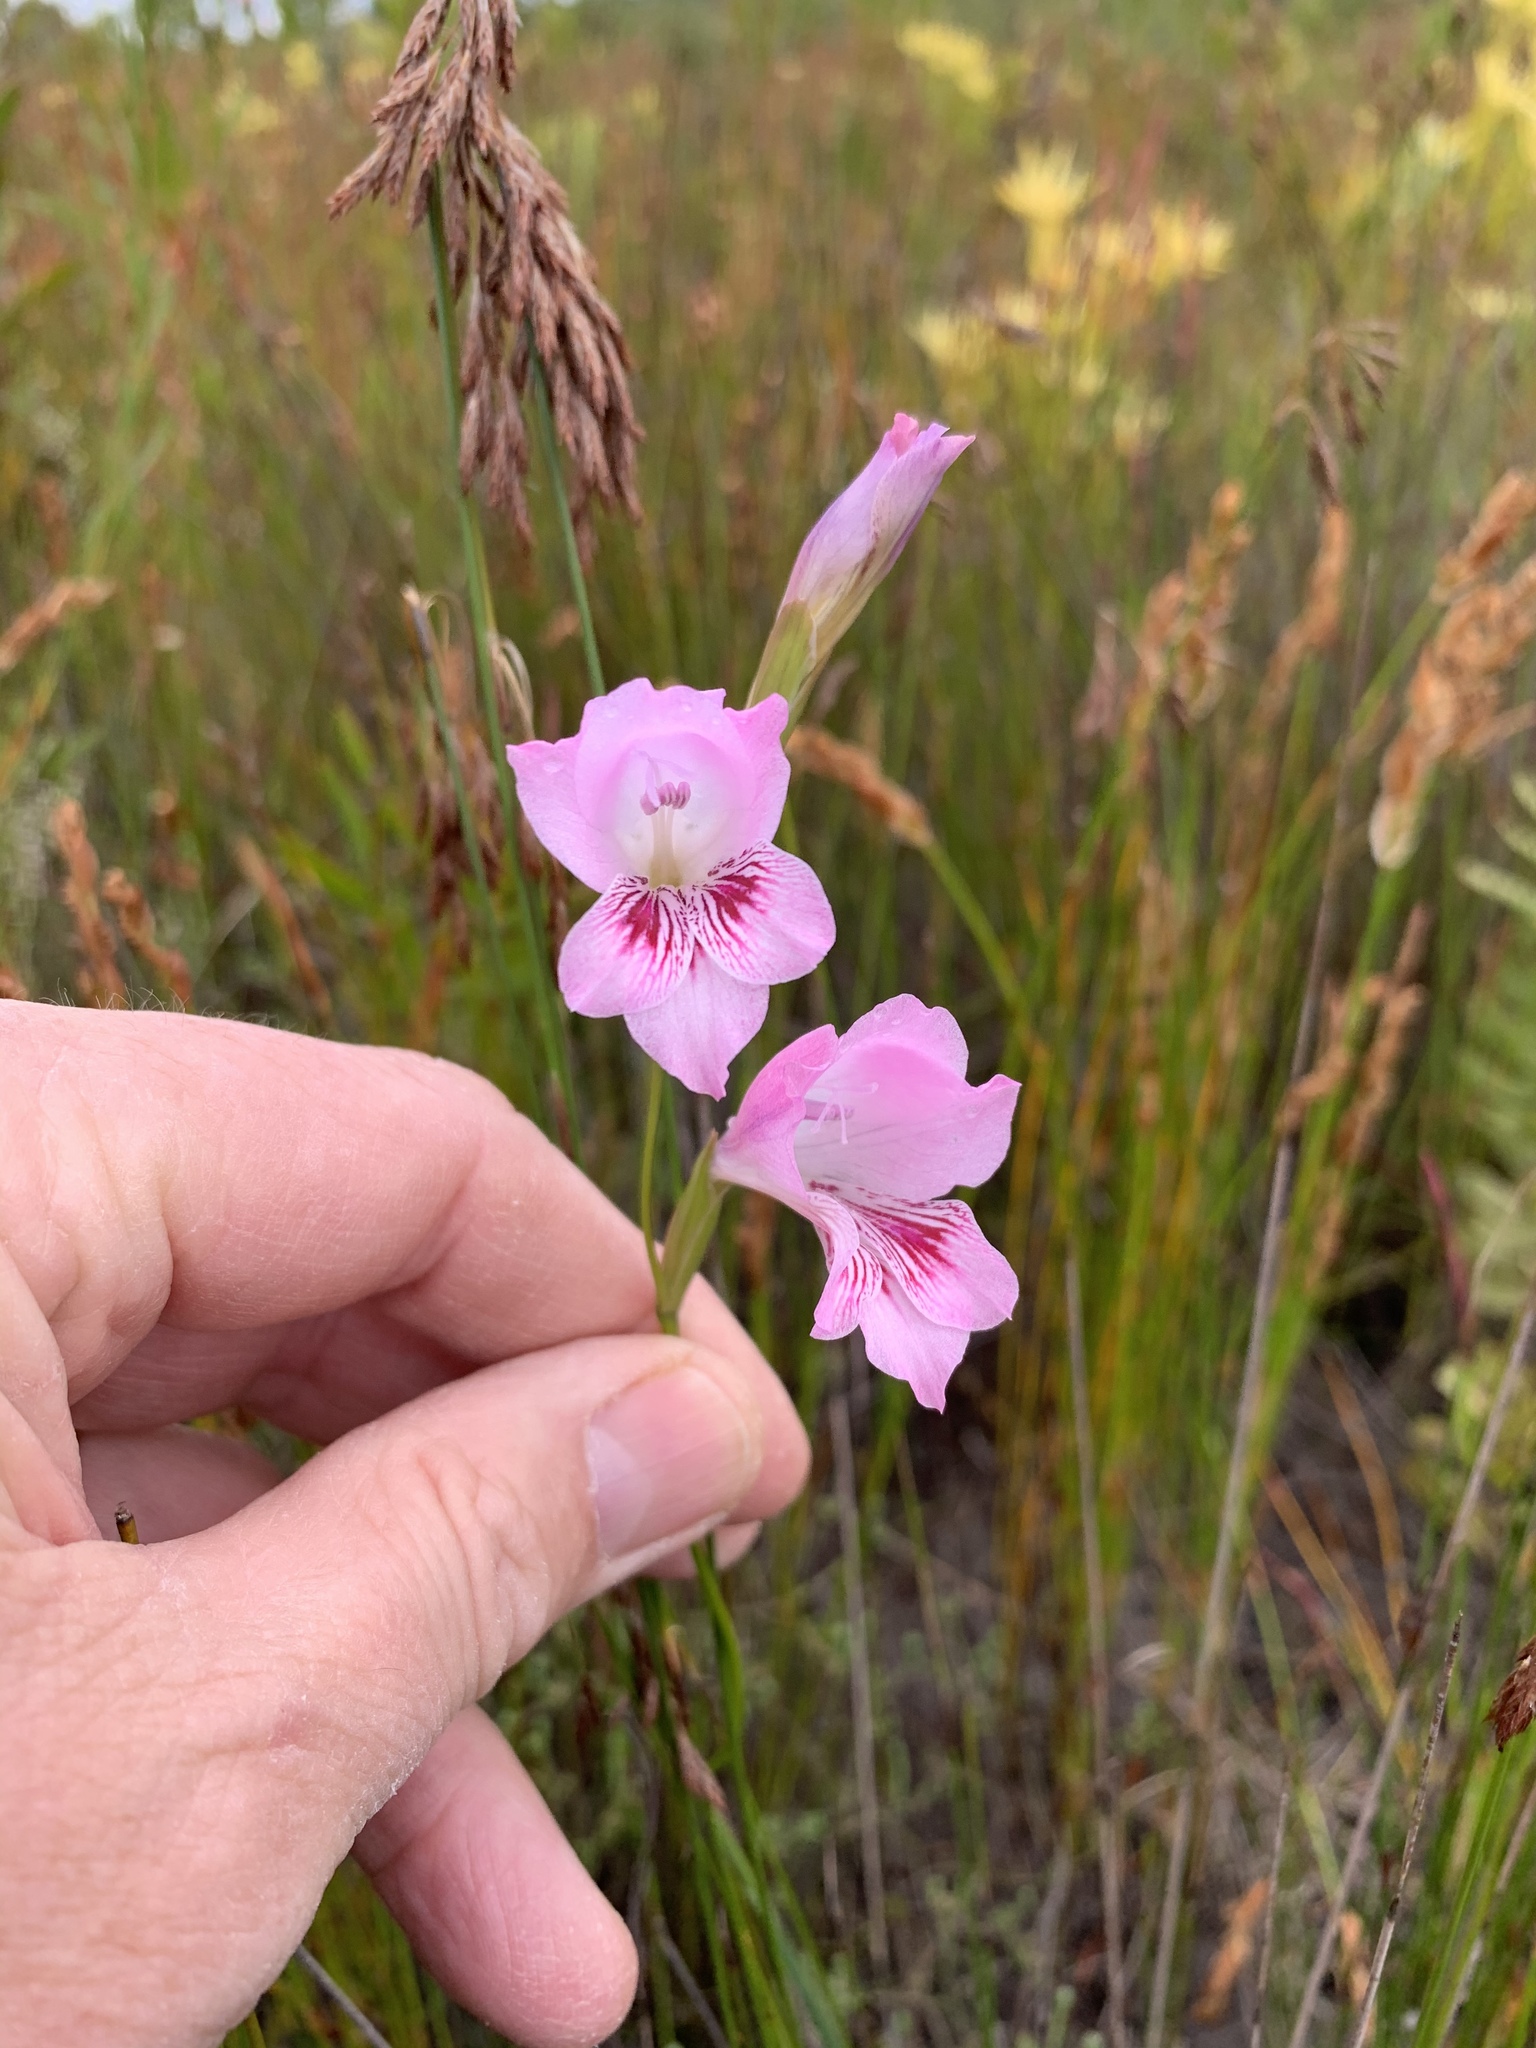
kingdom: Plantae
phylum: Tracheophyta
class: Liliopsida
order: Asparagales
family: Iridaceae
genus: Gladiolus
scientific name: Gladiolus hirsutus
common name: Small pink afrikaner
